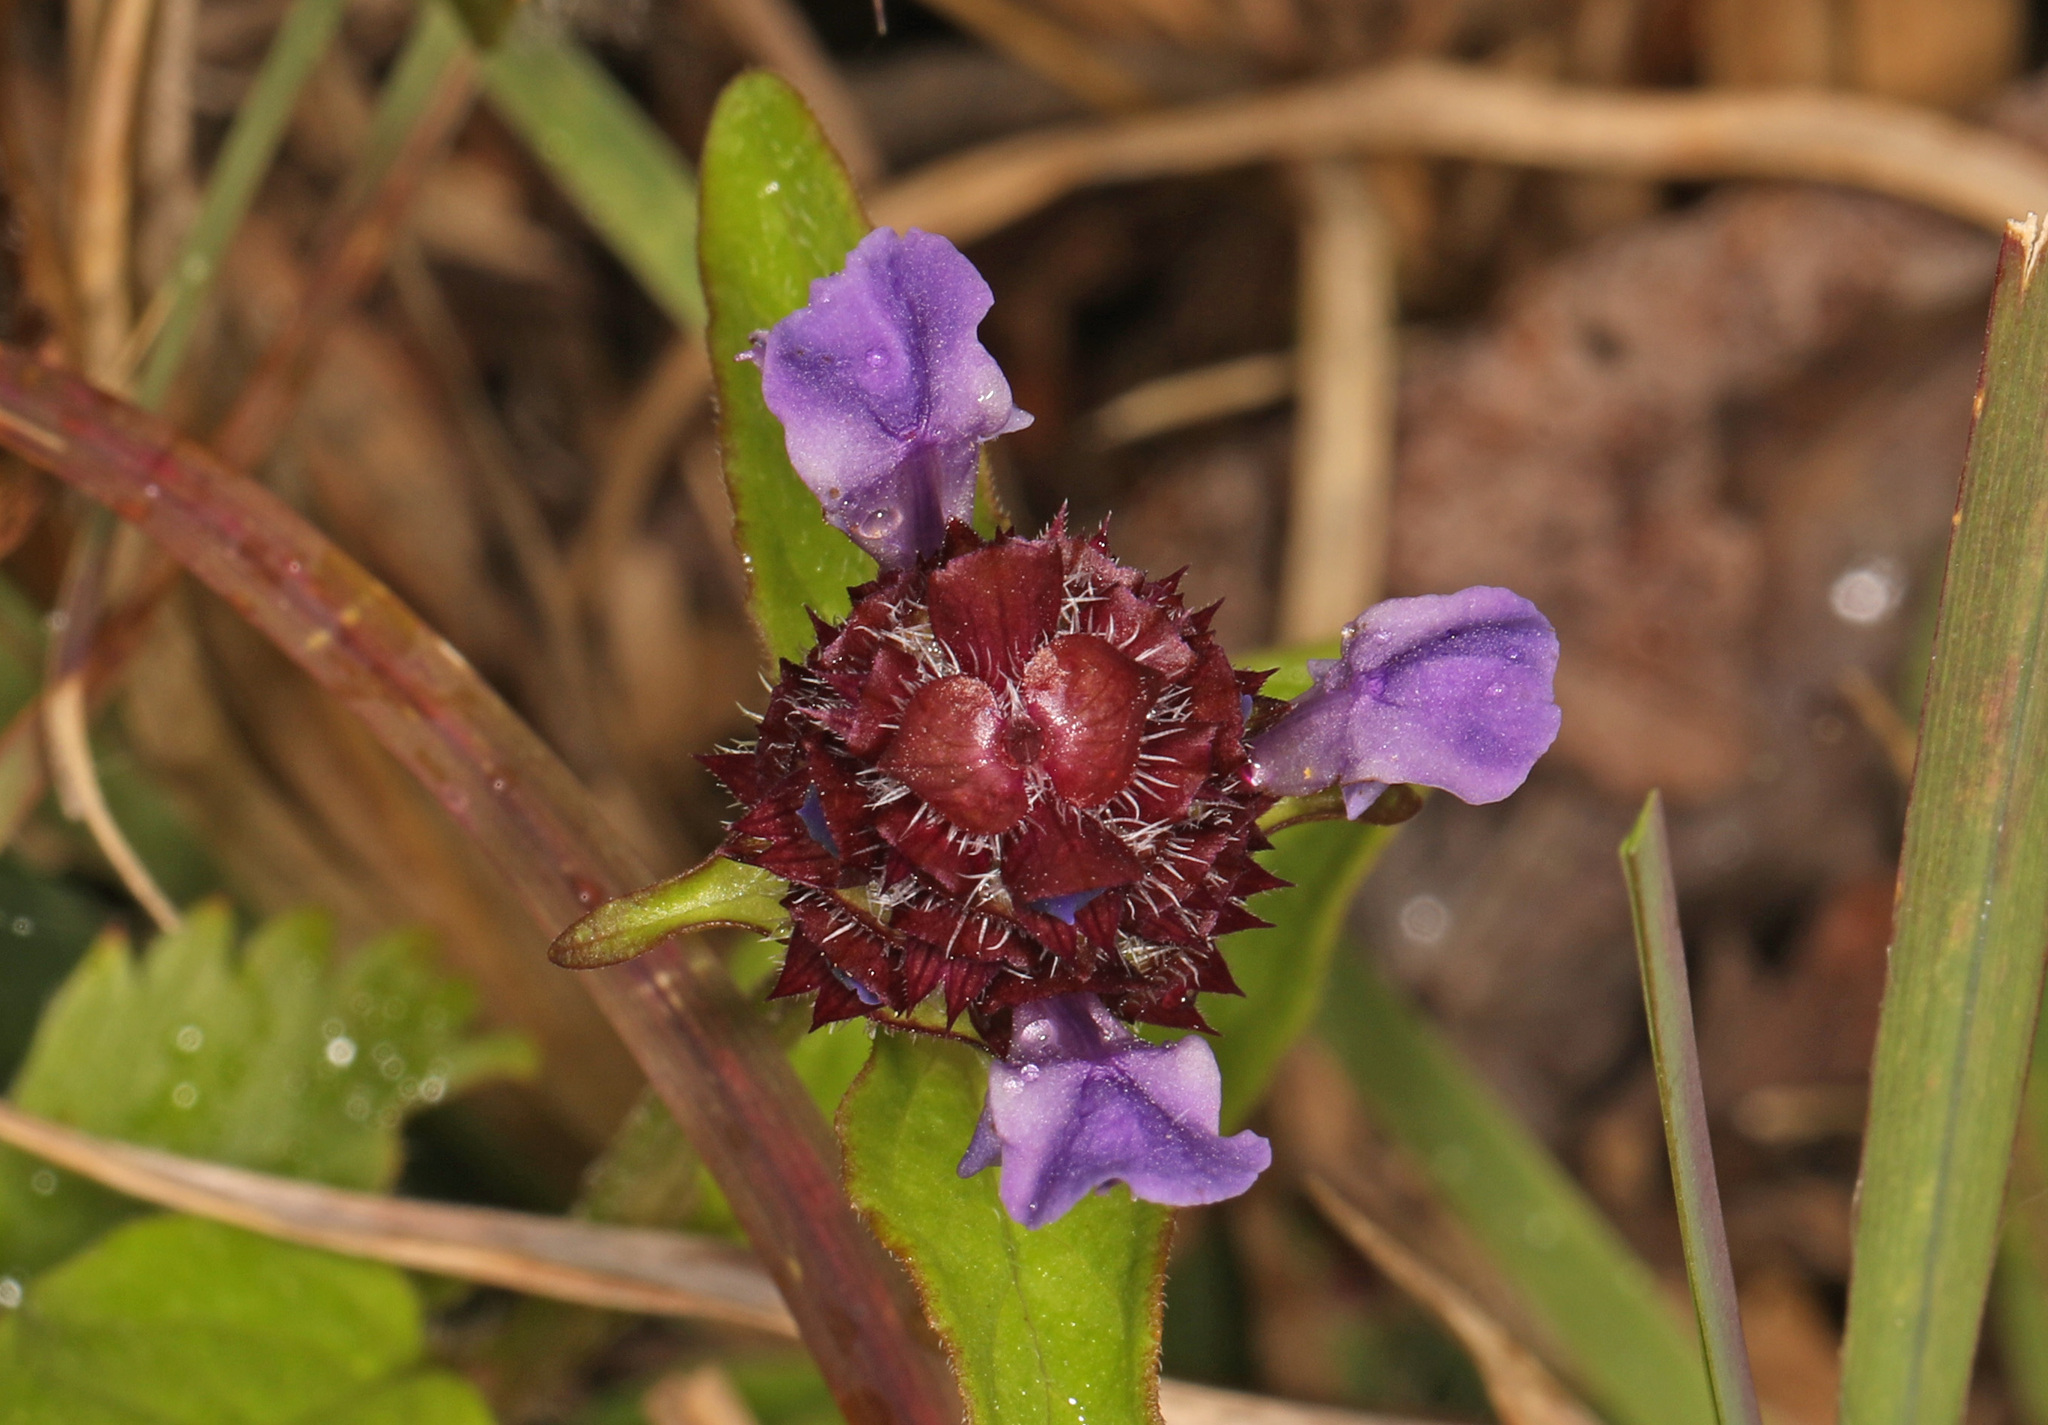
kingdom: Plantae
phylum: Tracheophyta
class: Magnoliopsida
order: Lamiales
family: Lamiaceae
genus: Prunella
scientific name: Prunella vulgaris
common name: Heal-all
